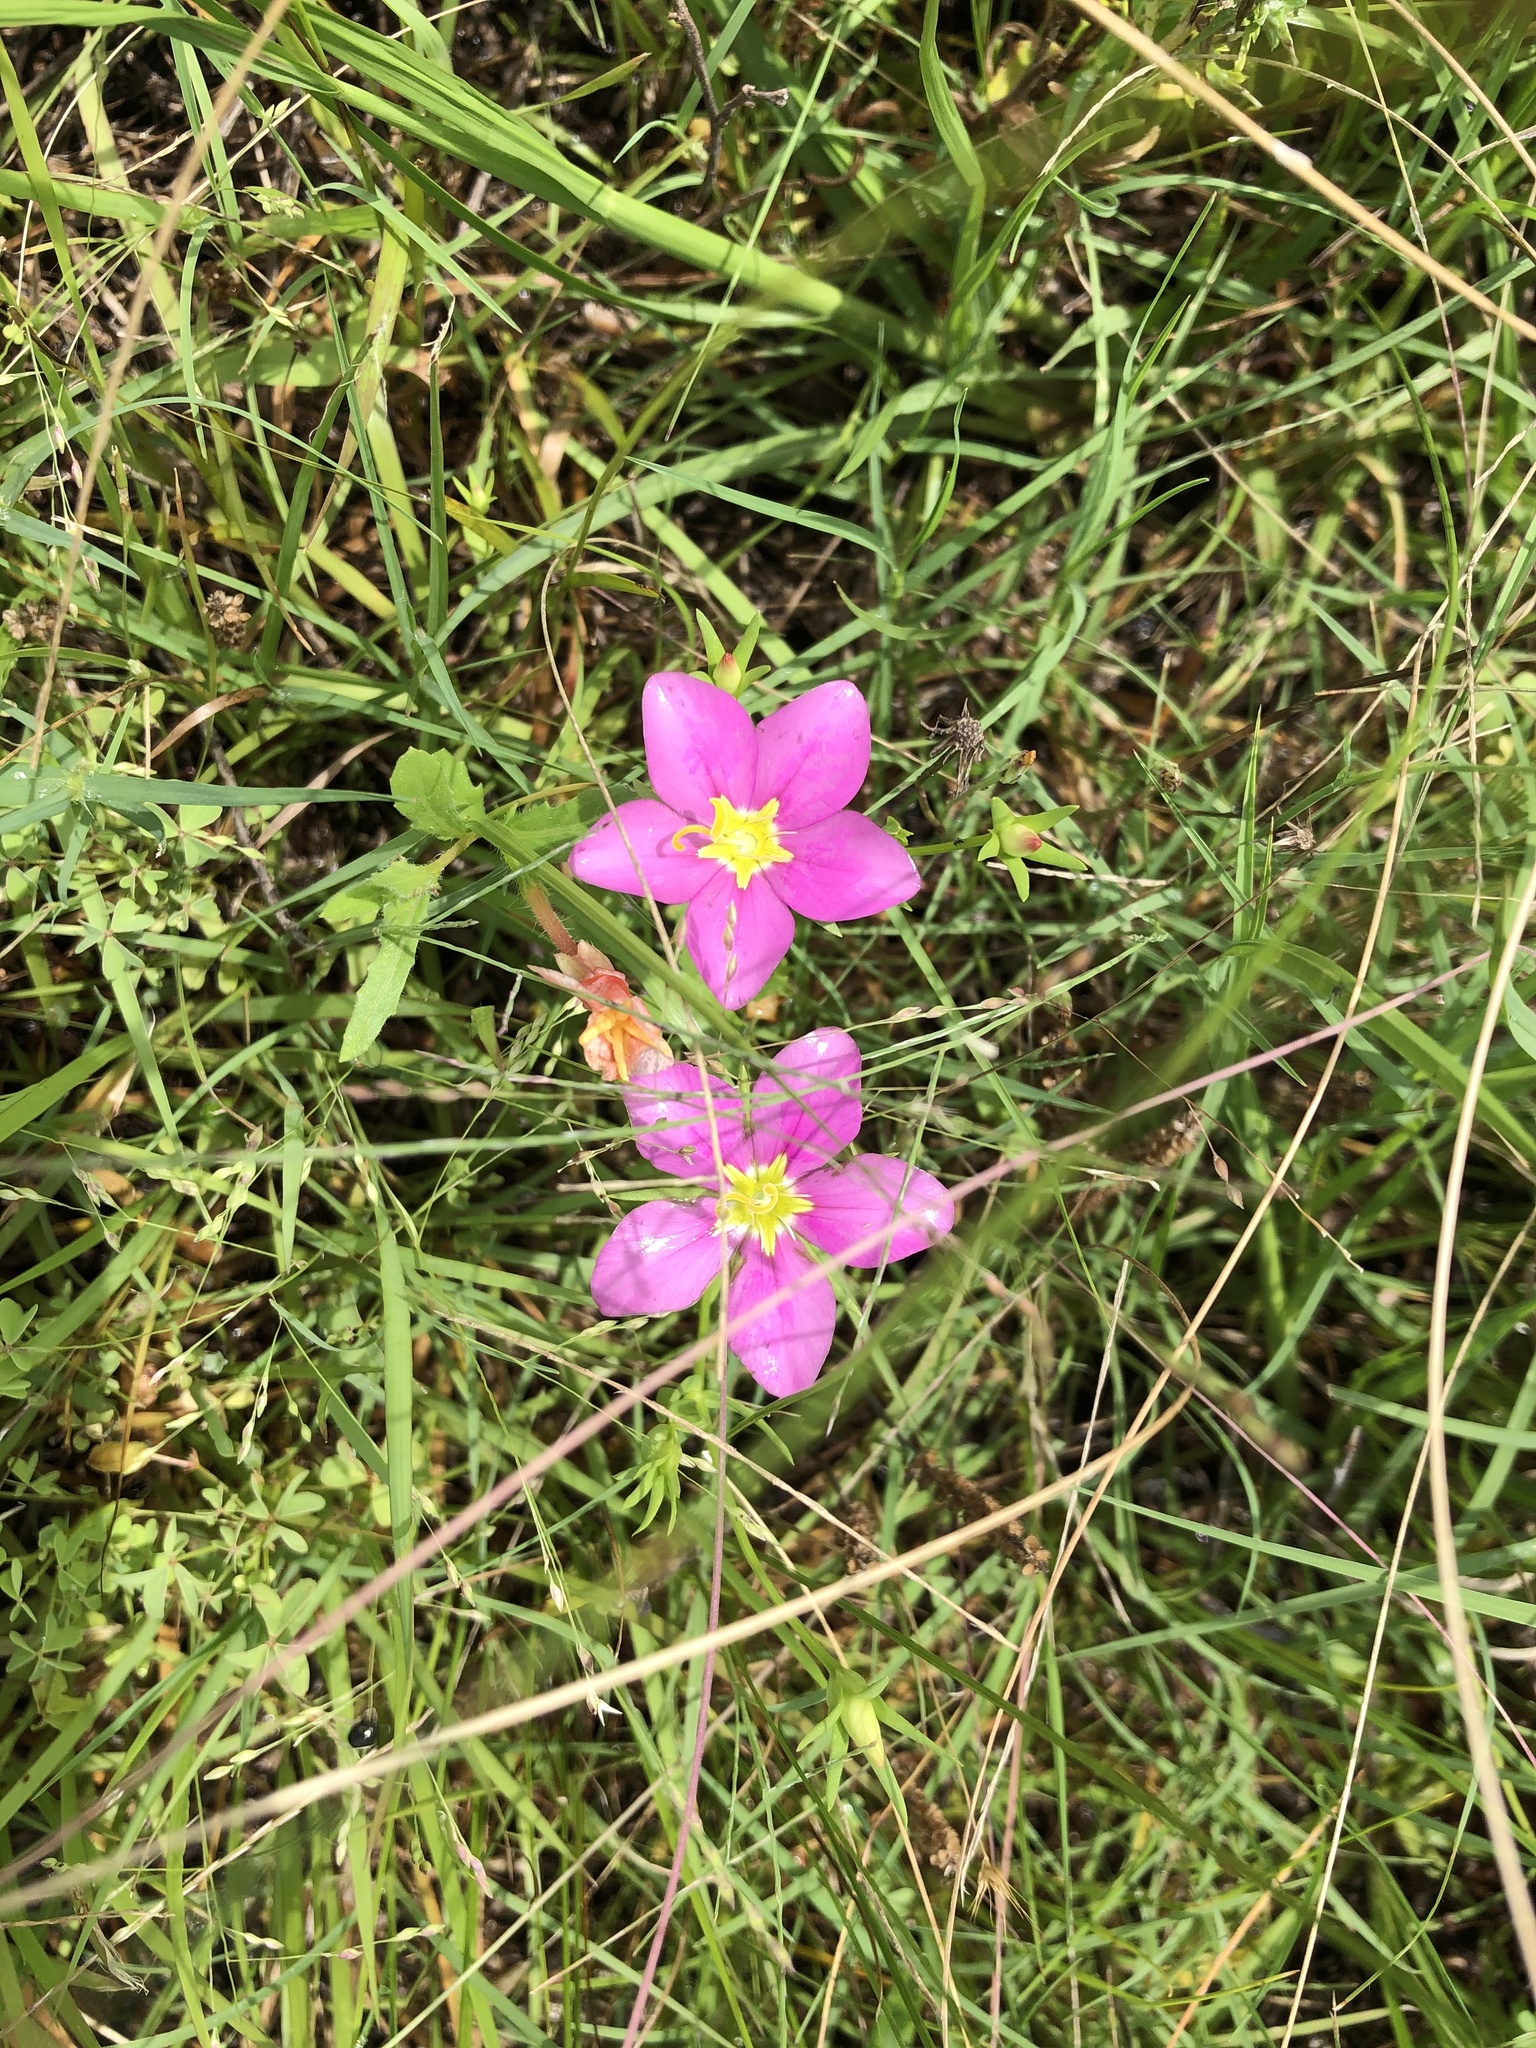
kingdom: Plantae
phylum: Tracheophyta
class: Magnoliopsida
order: Gentianales
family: Gentianaceae
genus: Sabatia
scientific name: Sabatia campestris
